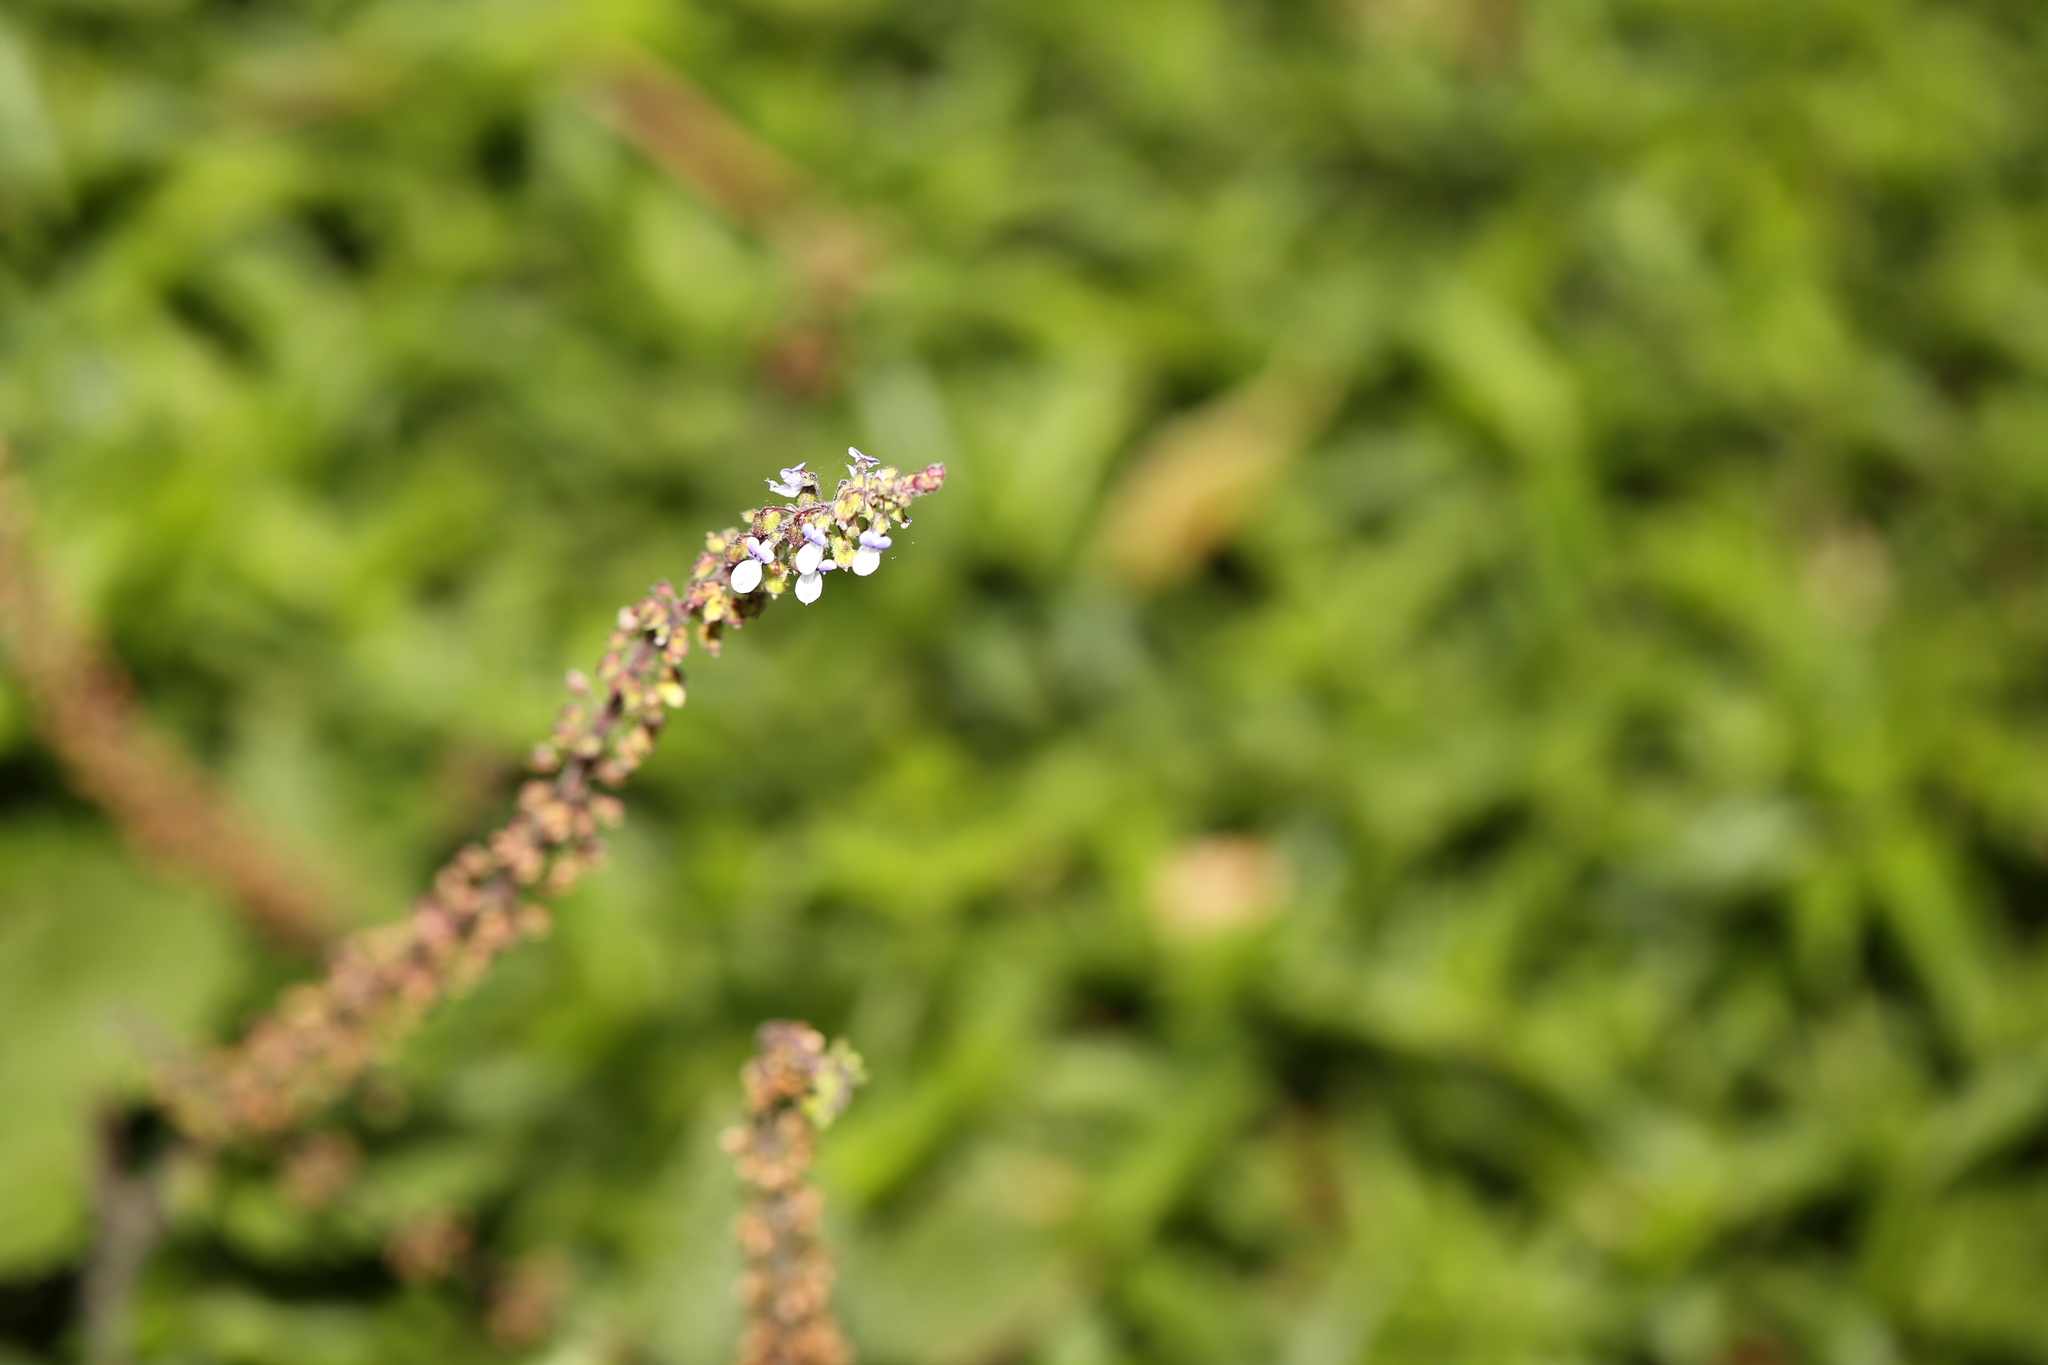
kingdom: Plantae
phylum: Tracheophyta
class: Magnoliopsida
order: Lamiales
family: Lamiaceae
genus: Coleus
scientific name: Coleus australis
